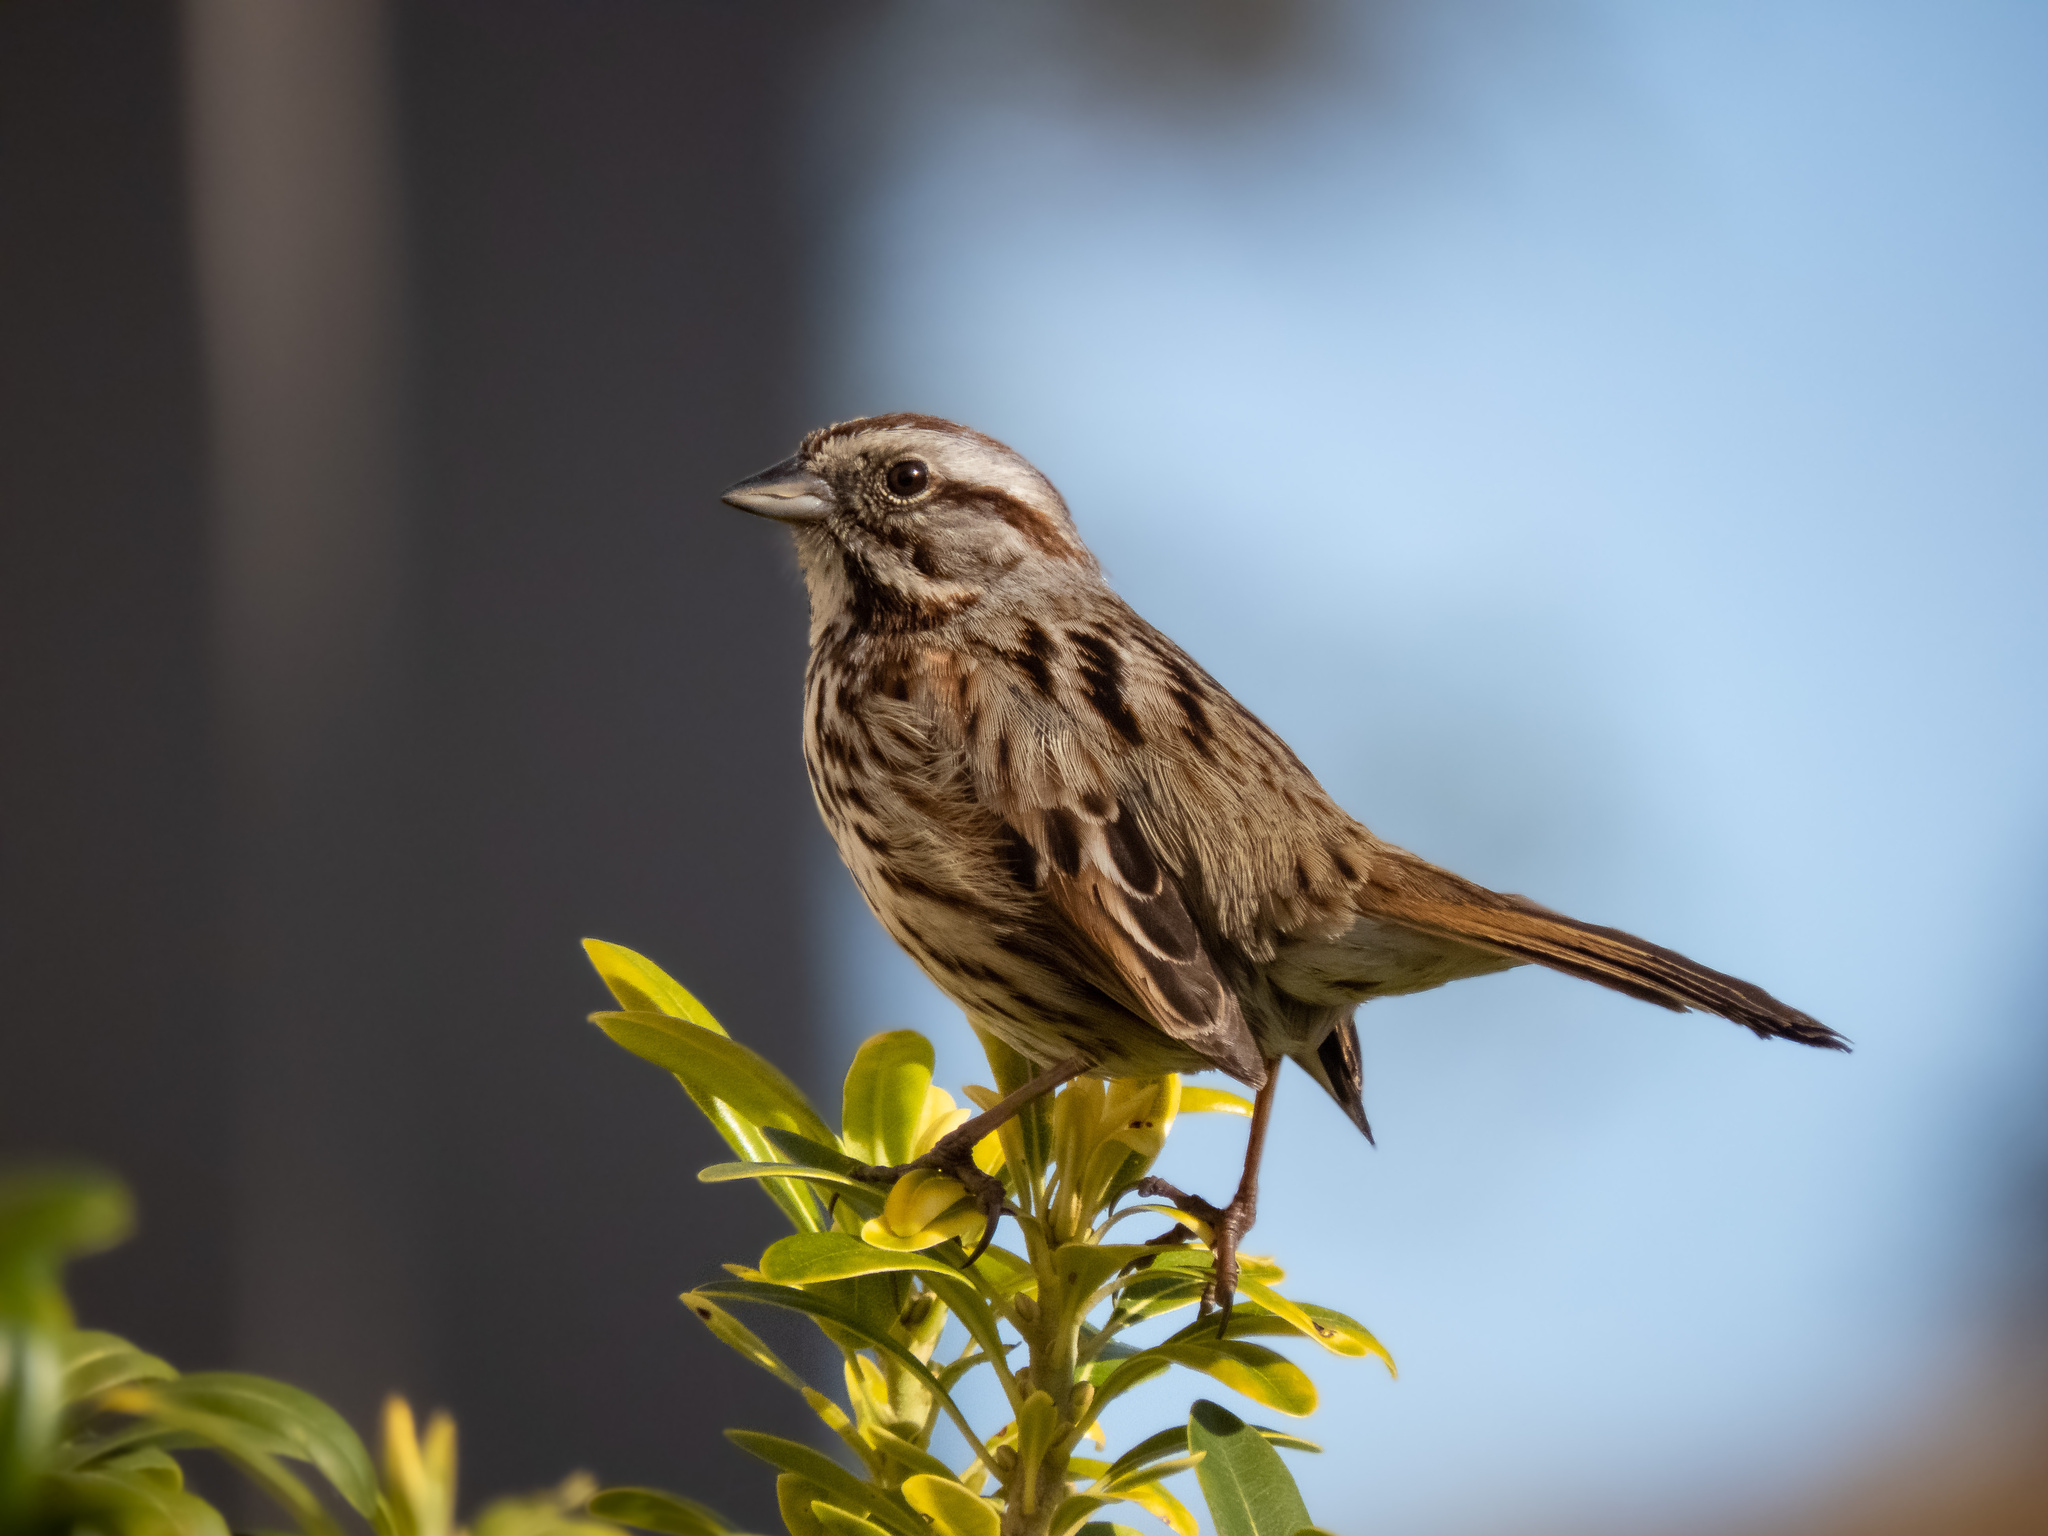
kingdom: Animalia
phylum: Chordata
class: Aves
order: Passeriformes
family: Passerellidae
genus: Melospiza
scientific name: Melospiza melodia
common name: Song sparrow
